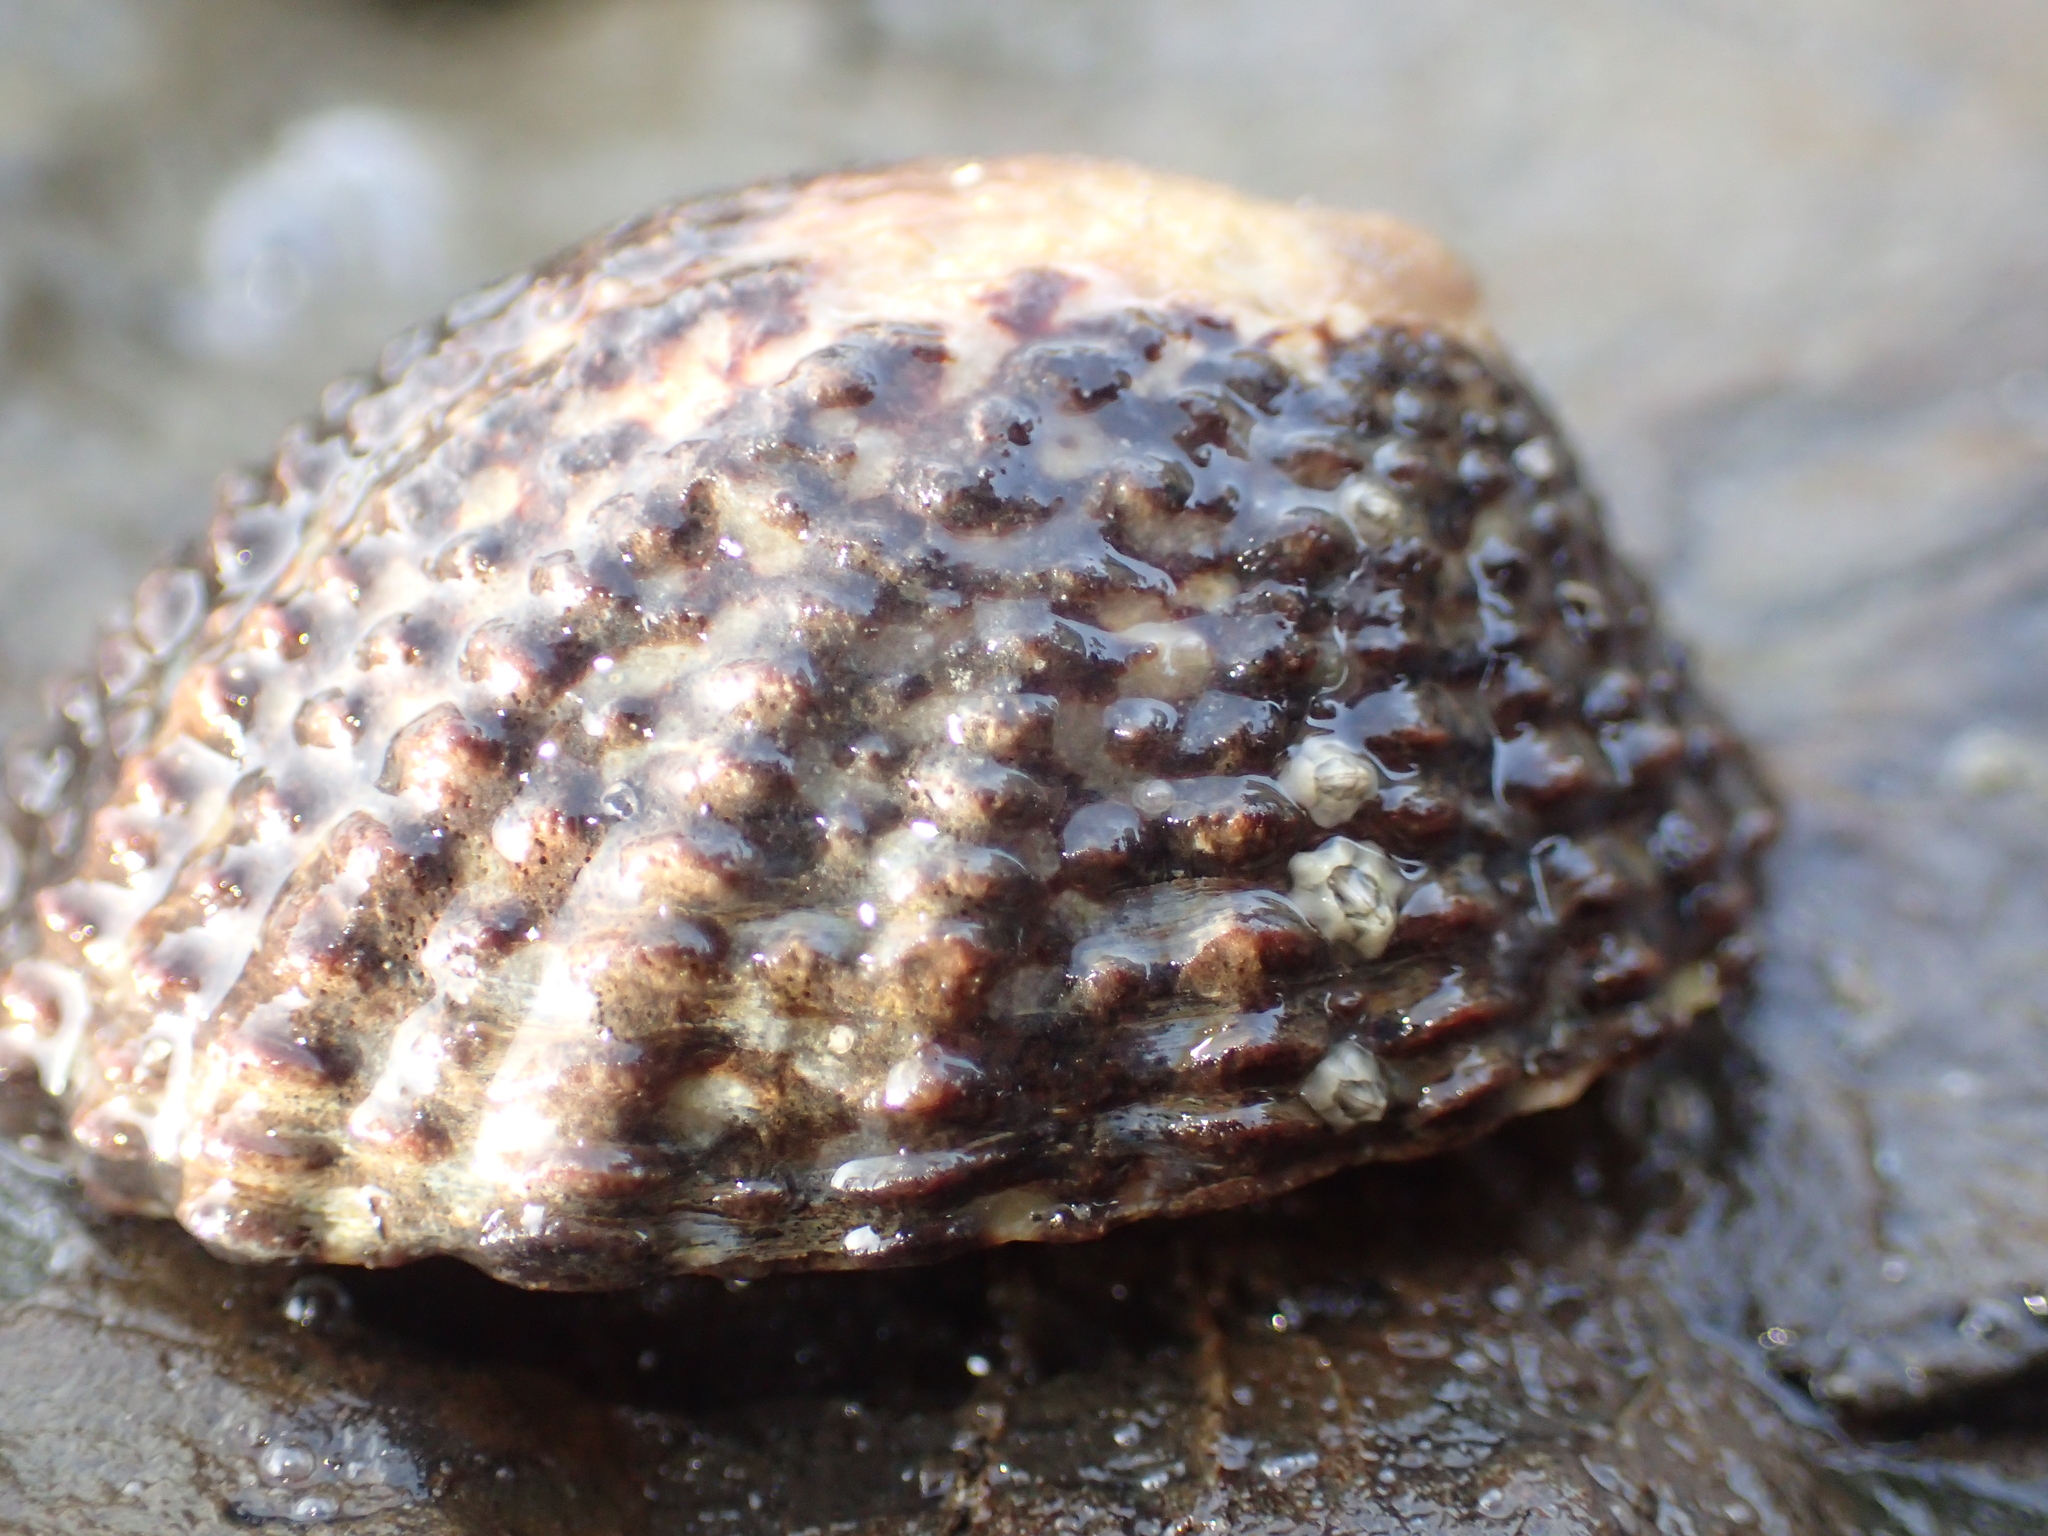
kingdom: Animalia
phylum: Mollusca
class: Gastropoda
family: Nacellidae
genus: Cellana
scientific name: Cellana denticulata
